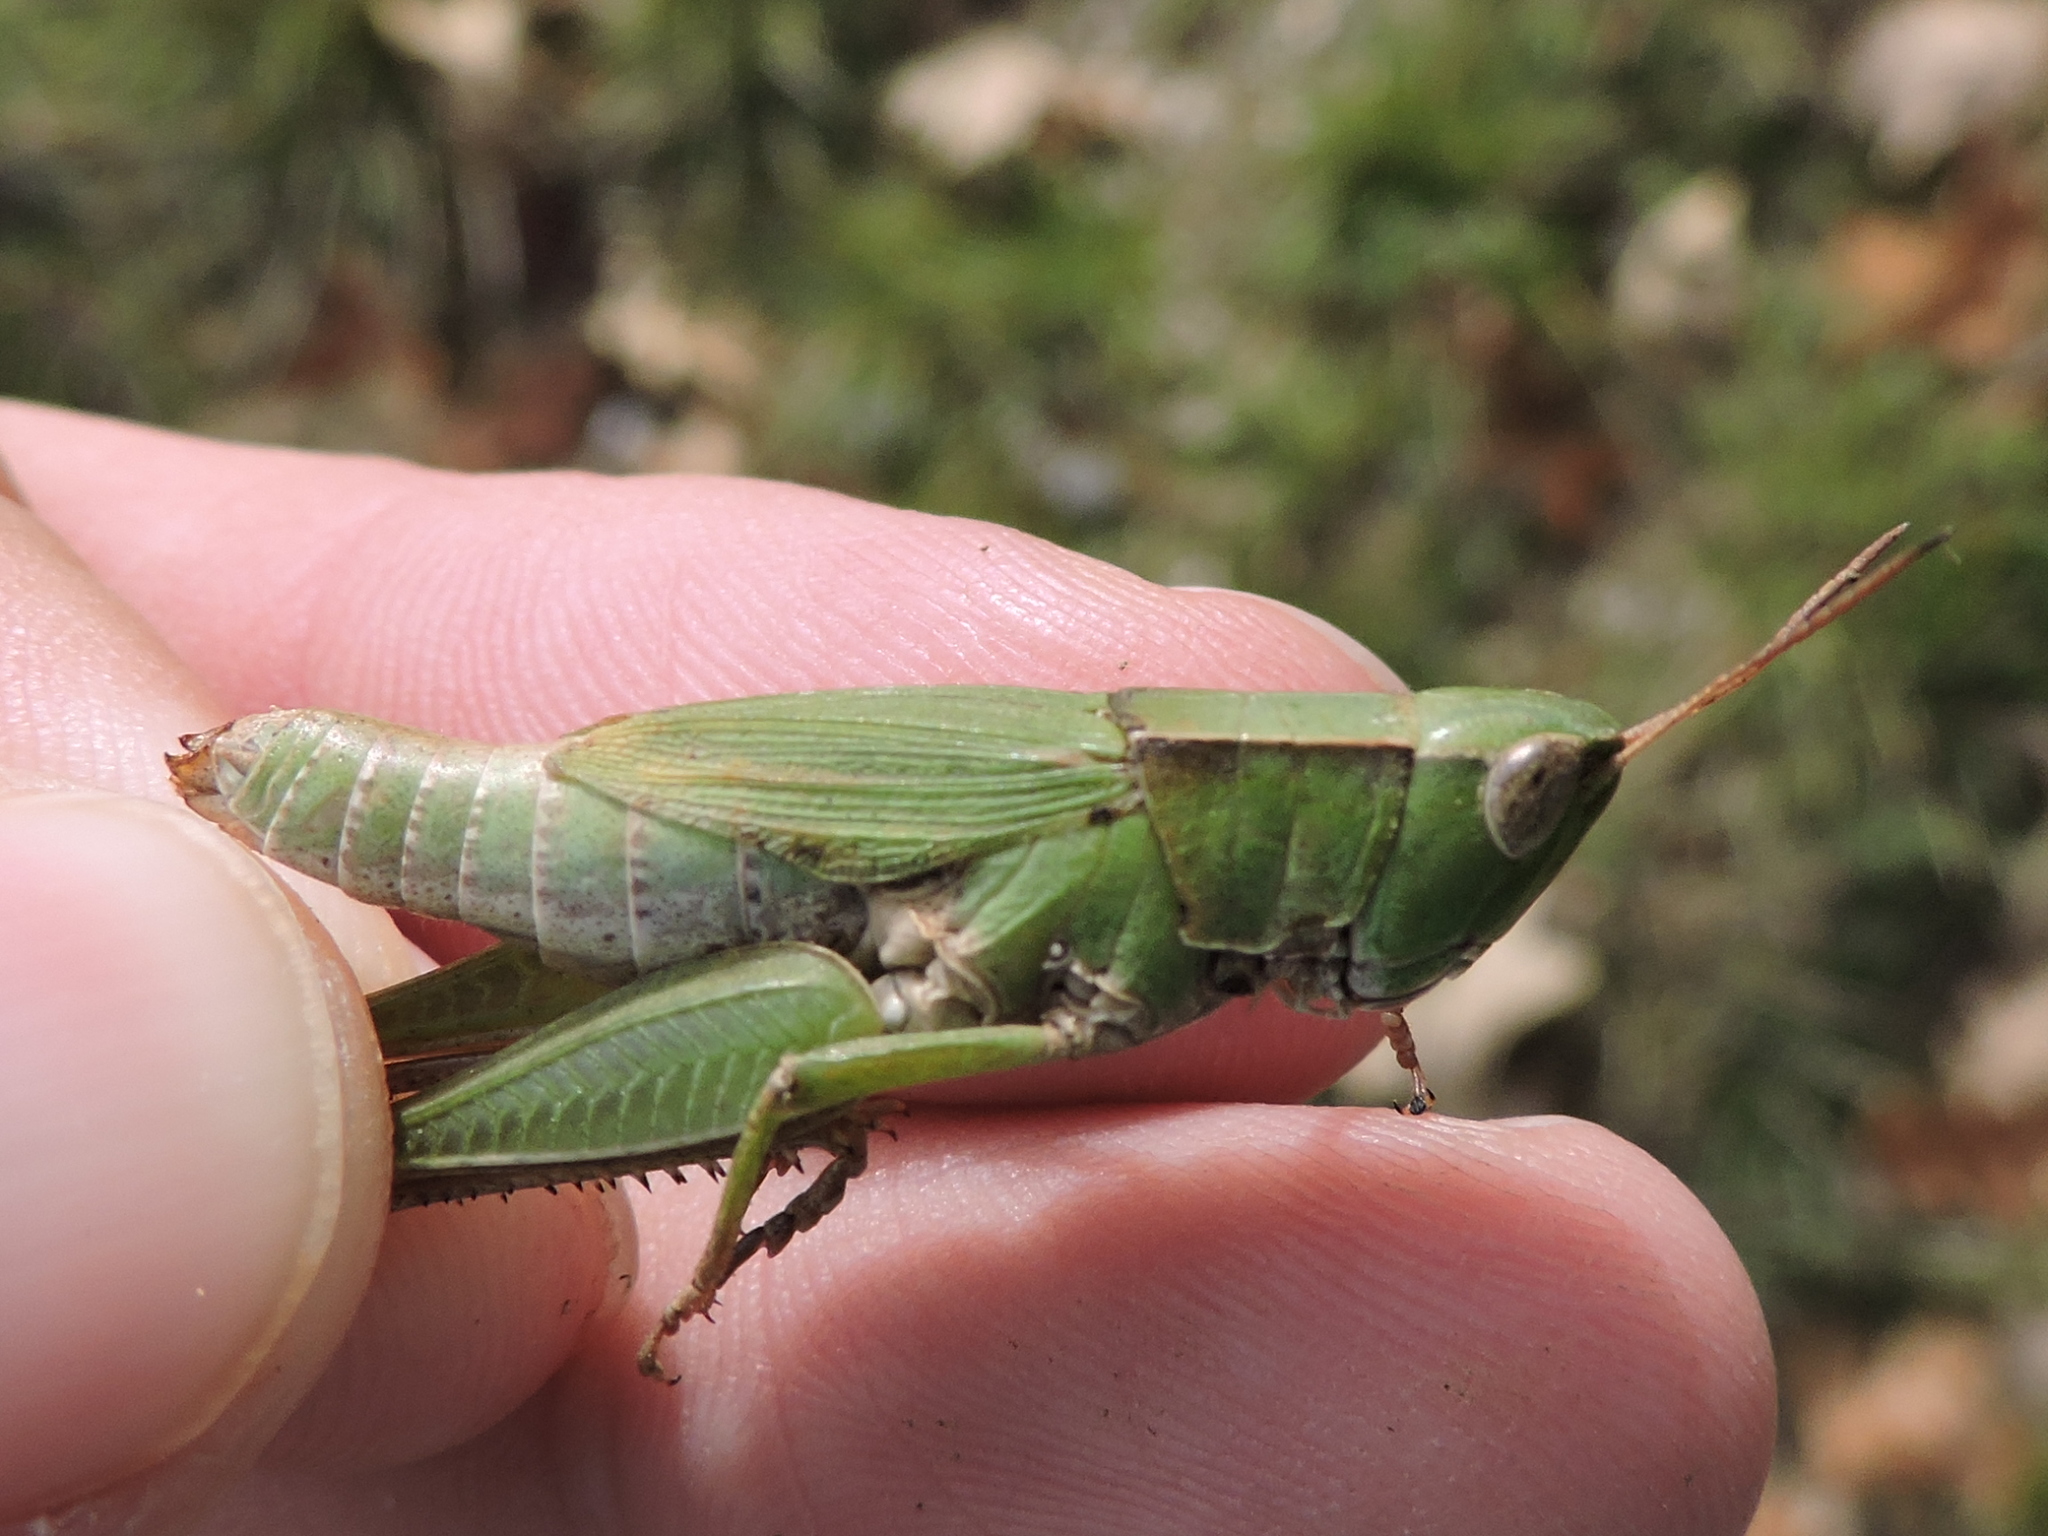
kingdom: Animalia
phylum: Arthropoda
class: Insecta
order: Orthoptera
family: Acrididae
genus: Dichromorpha
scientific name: Dichromorpha viridis
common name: Short-winged green grasshopper
